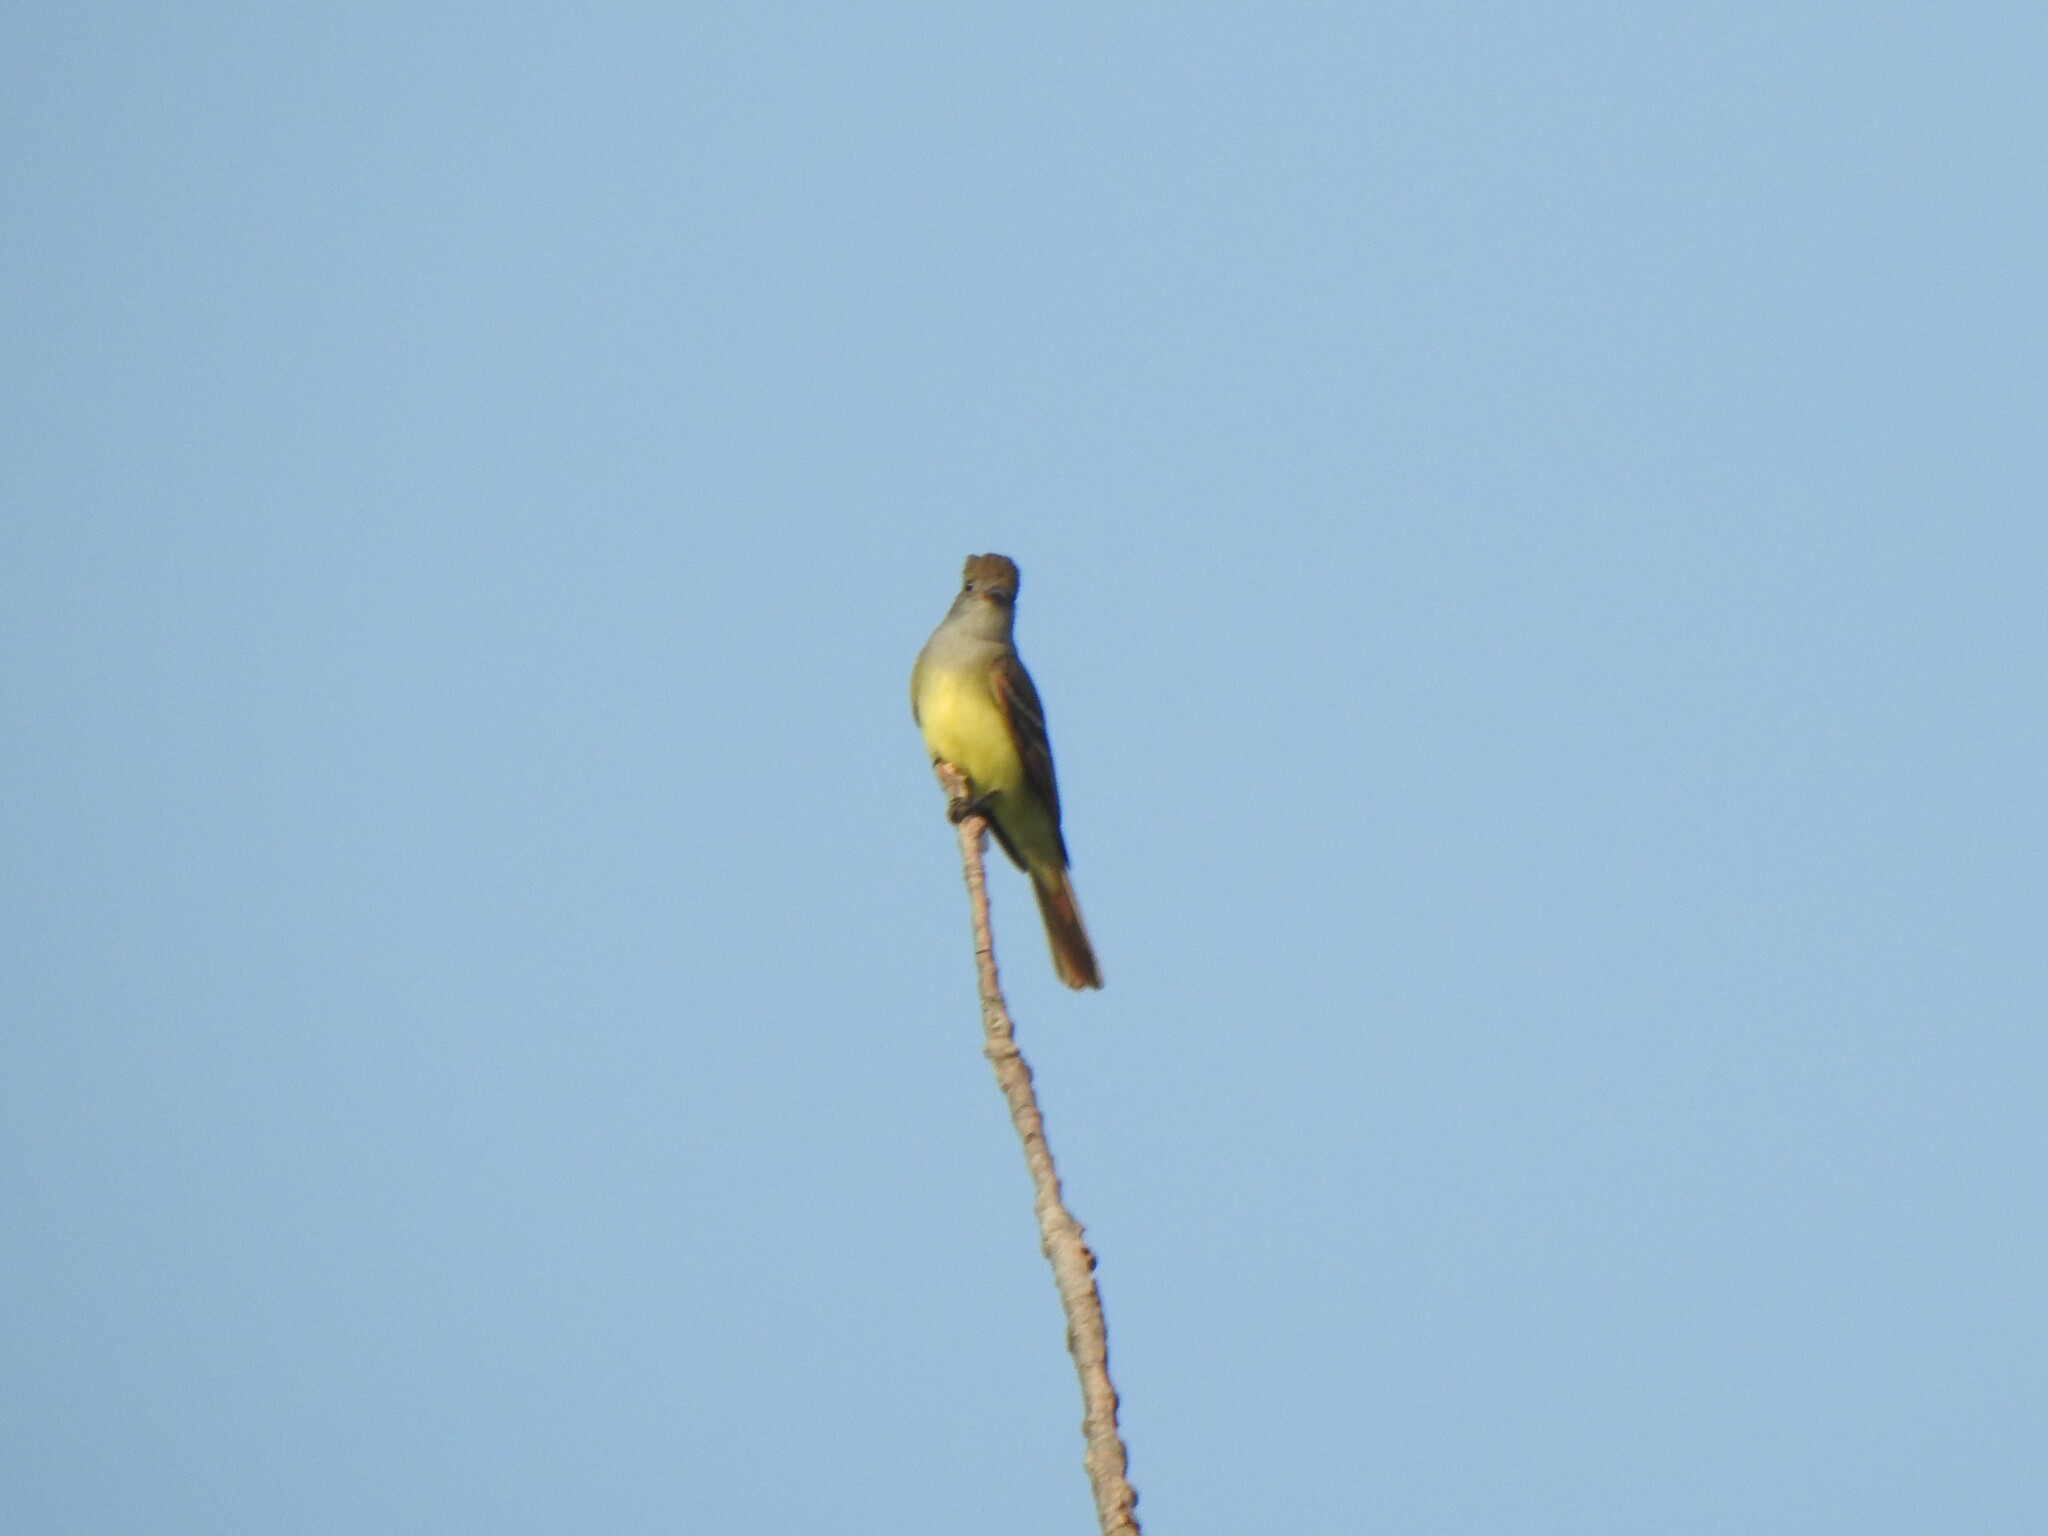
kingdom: Animalia
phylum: Chordata
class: Aves
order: Passeriformes
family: Tyrannidae
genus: Myiarchus
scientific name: Myiarchus crinitus
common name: Great crested flycatcher
